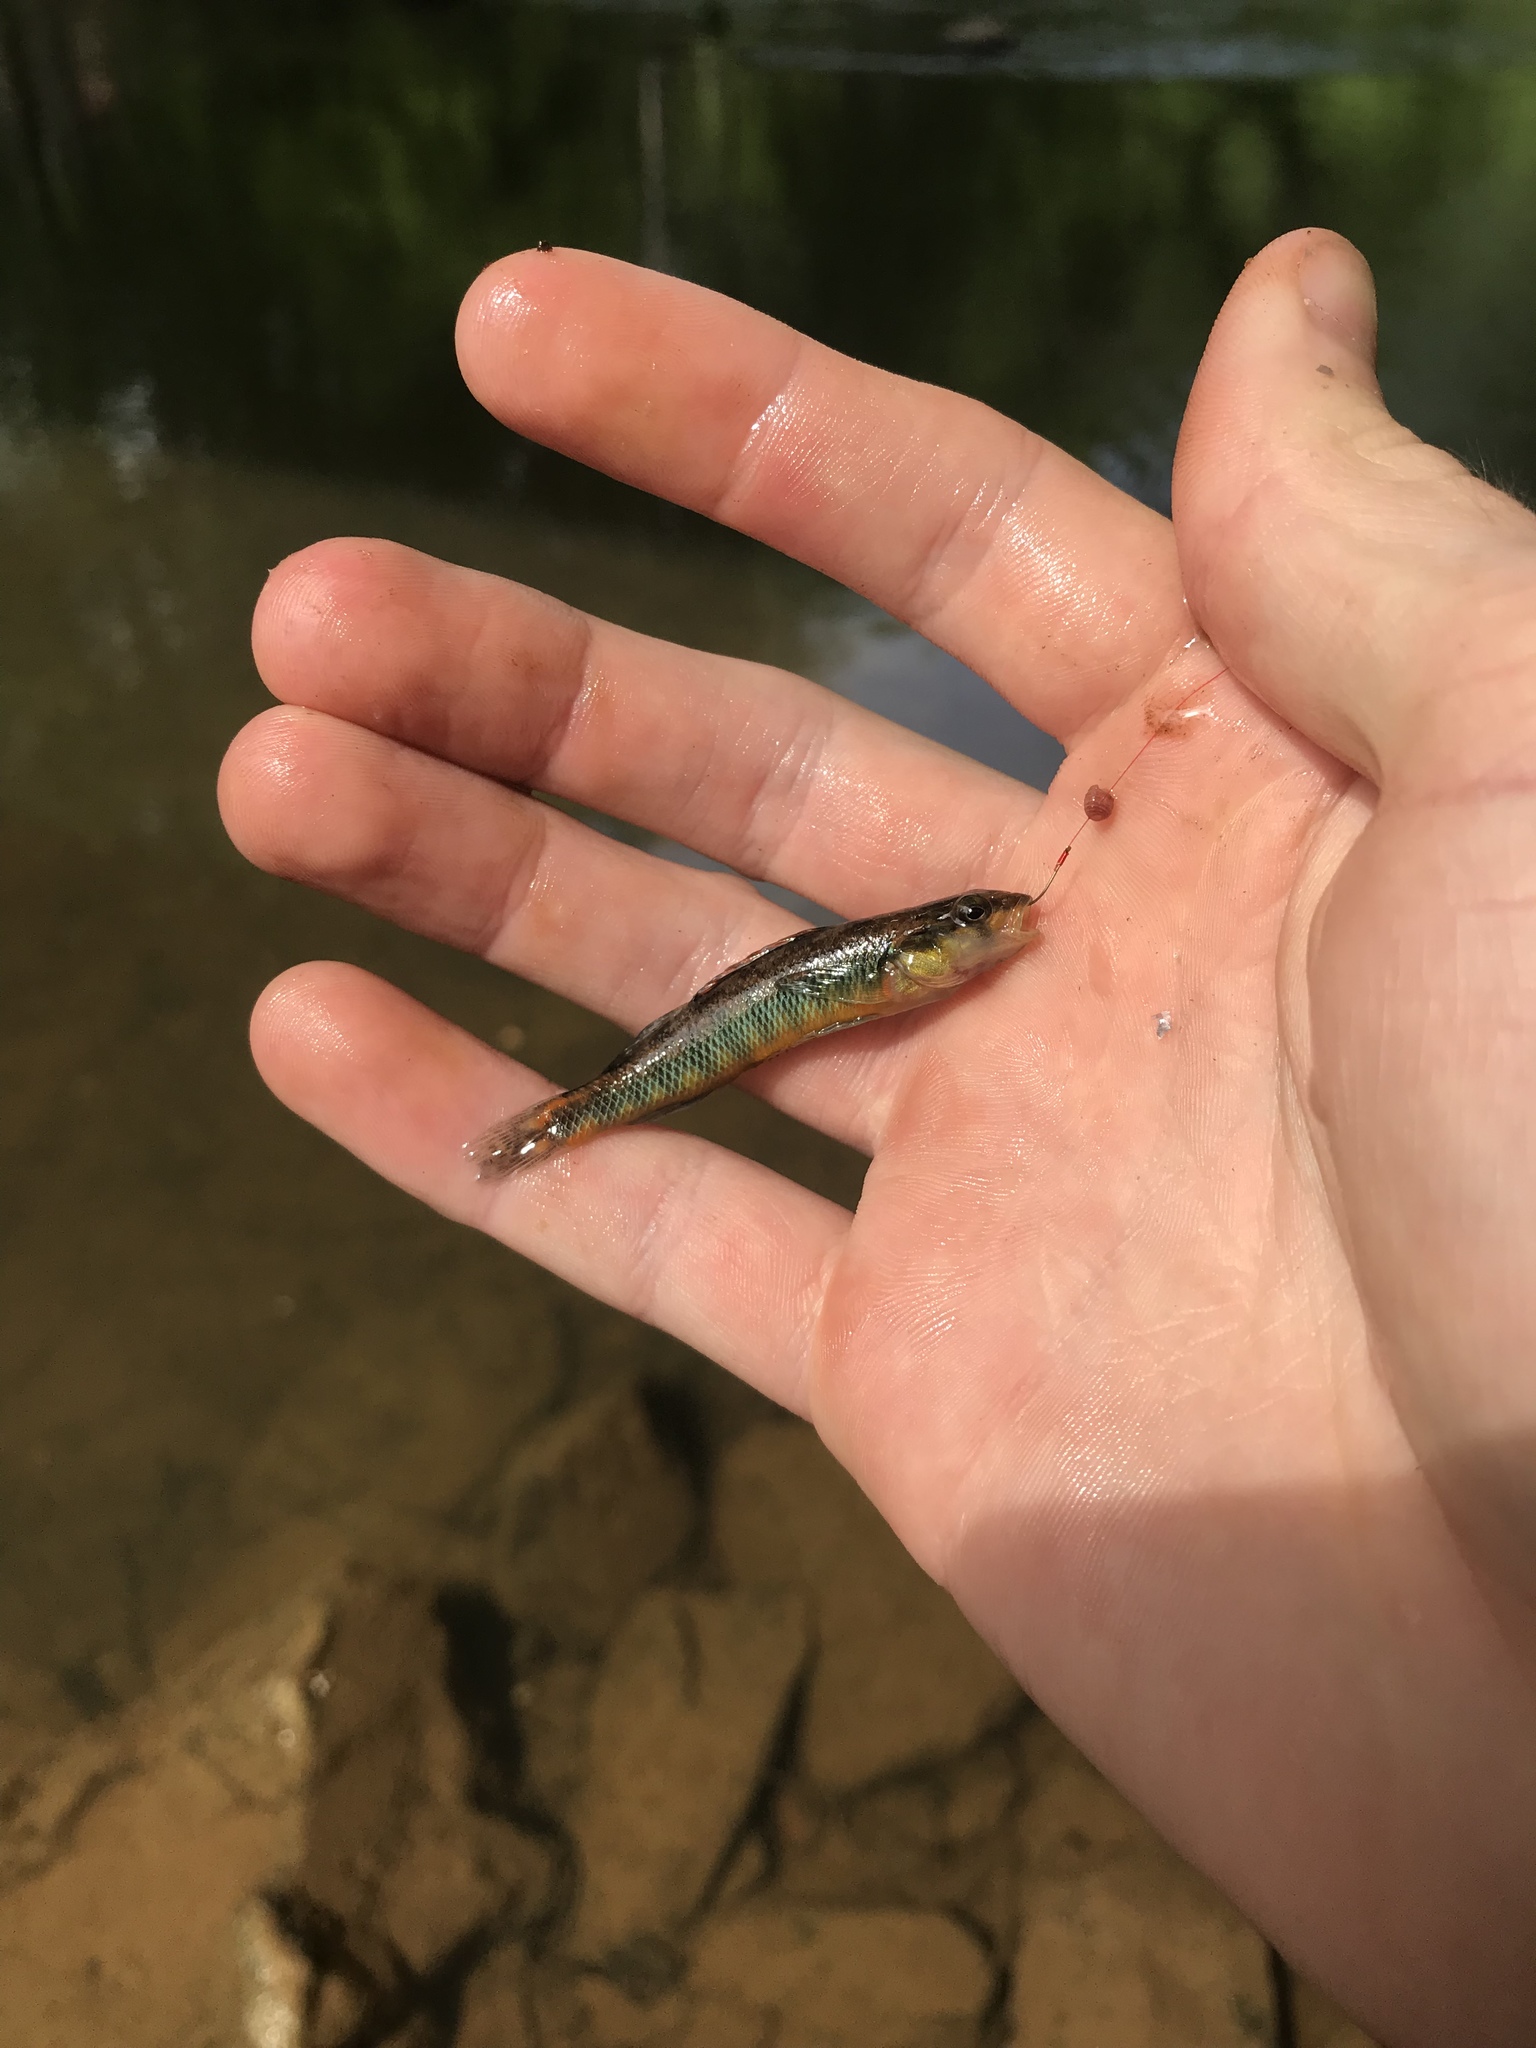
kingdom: Animalia
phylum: Chordata
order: Perciformes
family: Percidae
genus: Percina
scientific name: Percina roanoka
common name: Roanoke darter
